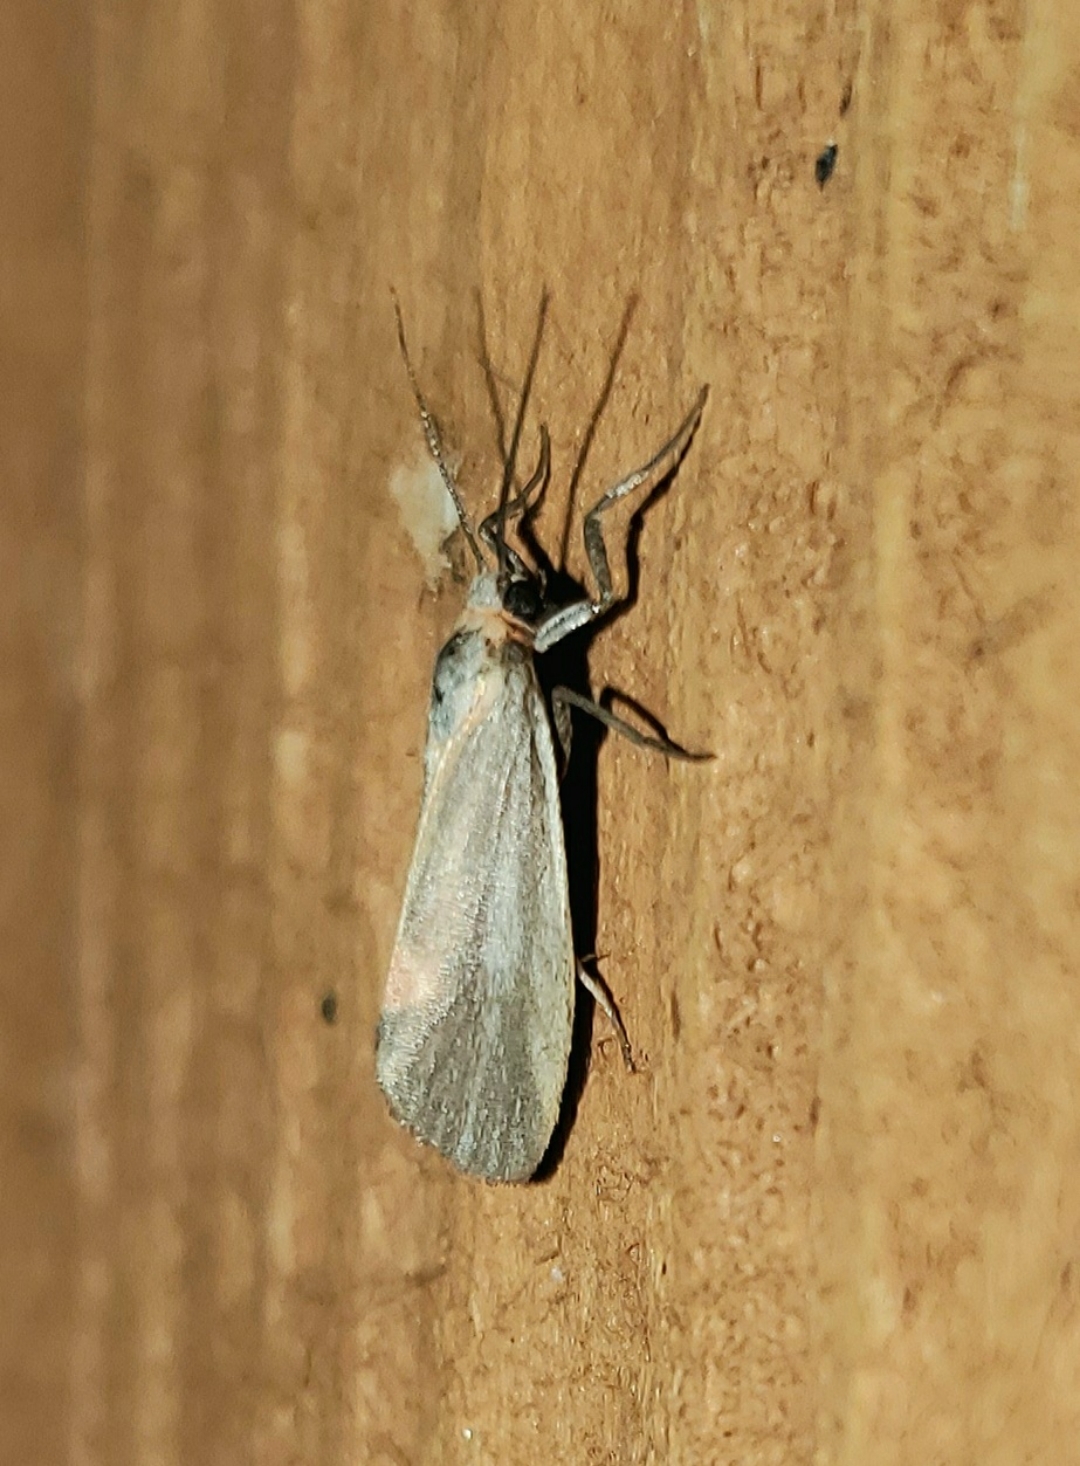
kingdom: Animalia
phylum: Arthropoda
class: Insecta
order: Lepidoptera
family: Erebidae
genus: Cisthene
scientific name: Cisthene striata
